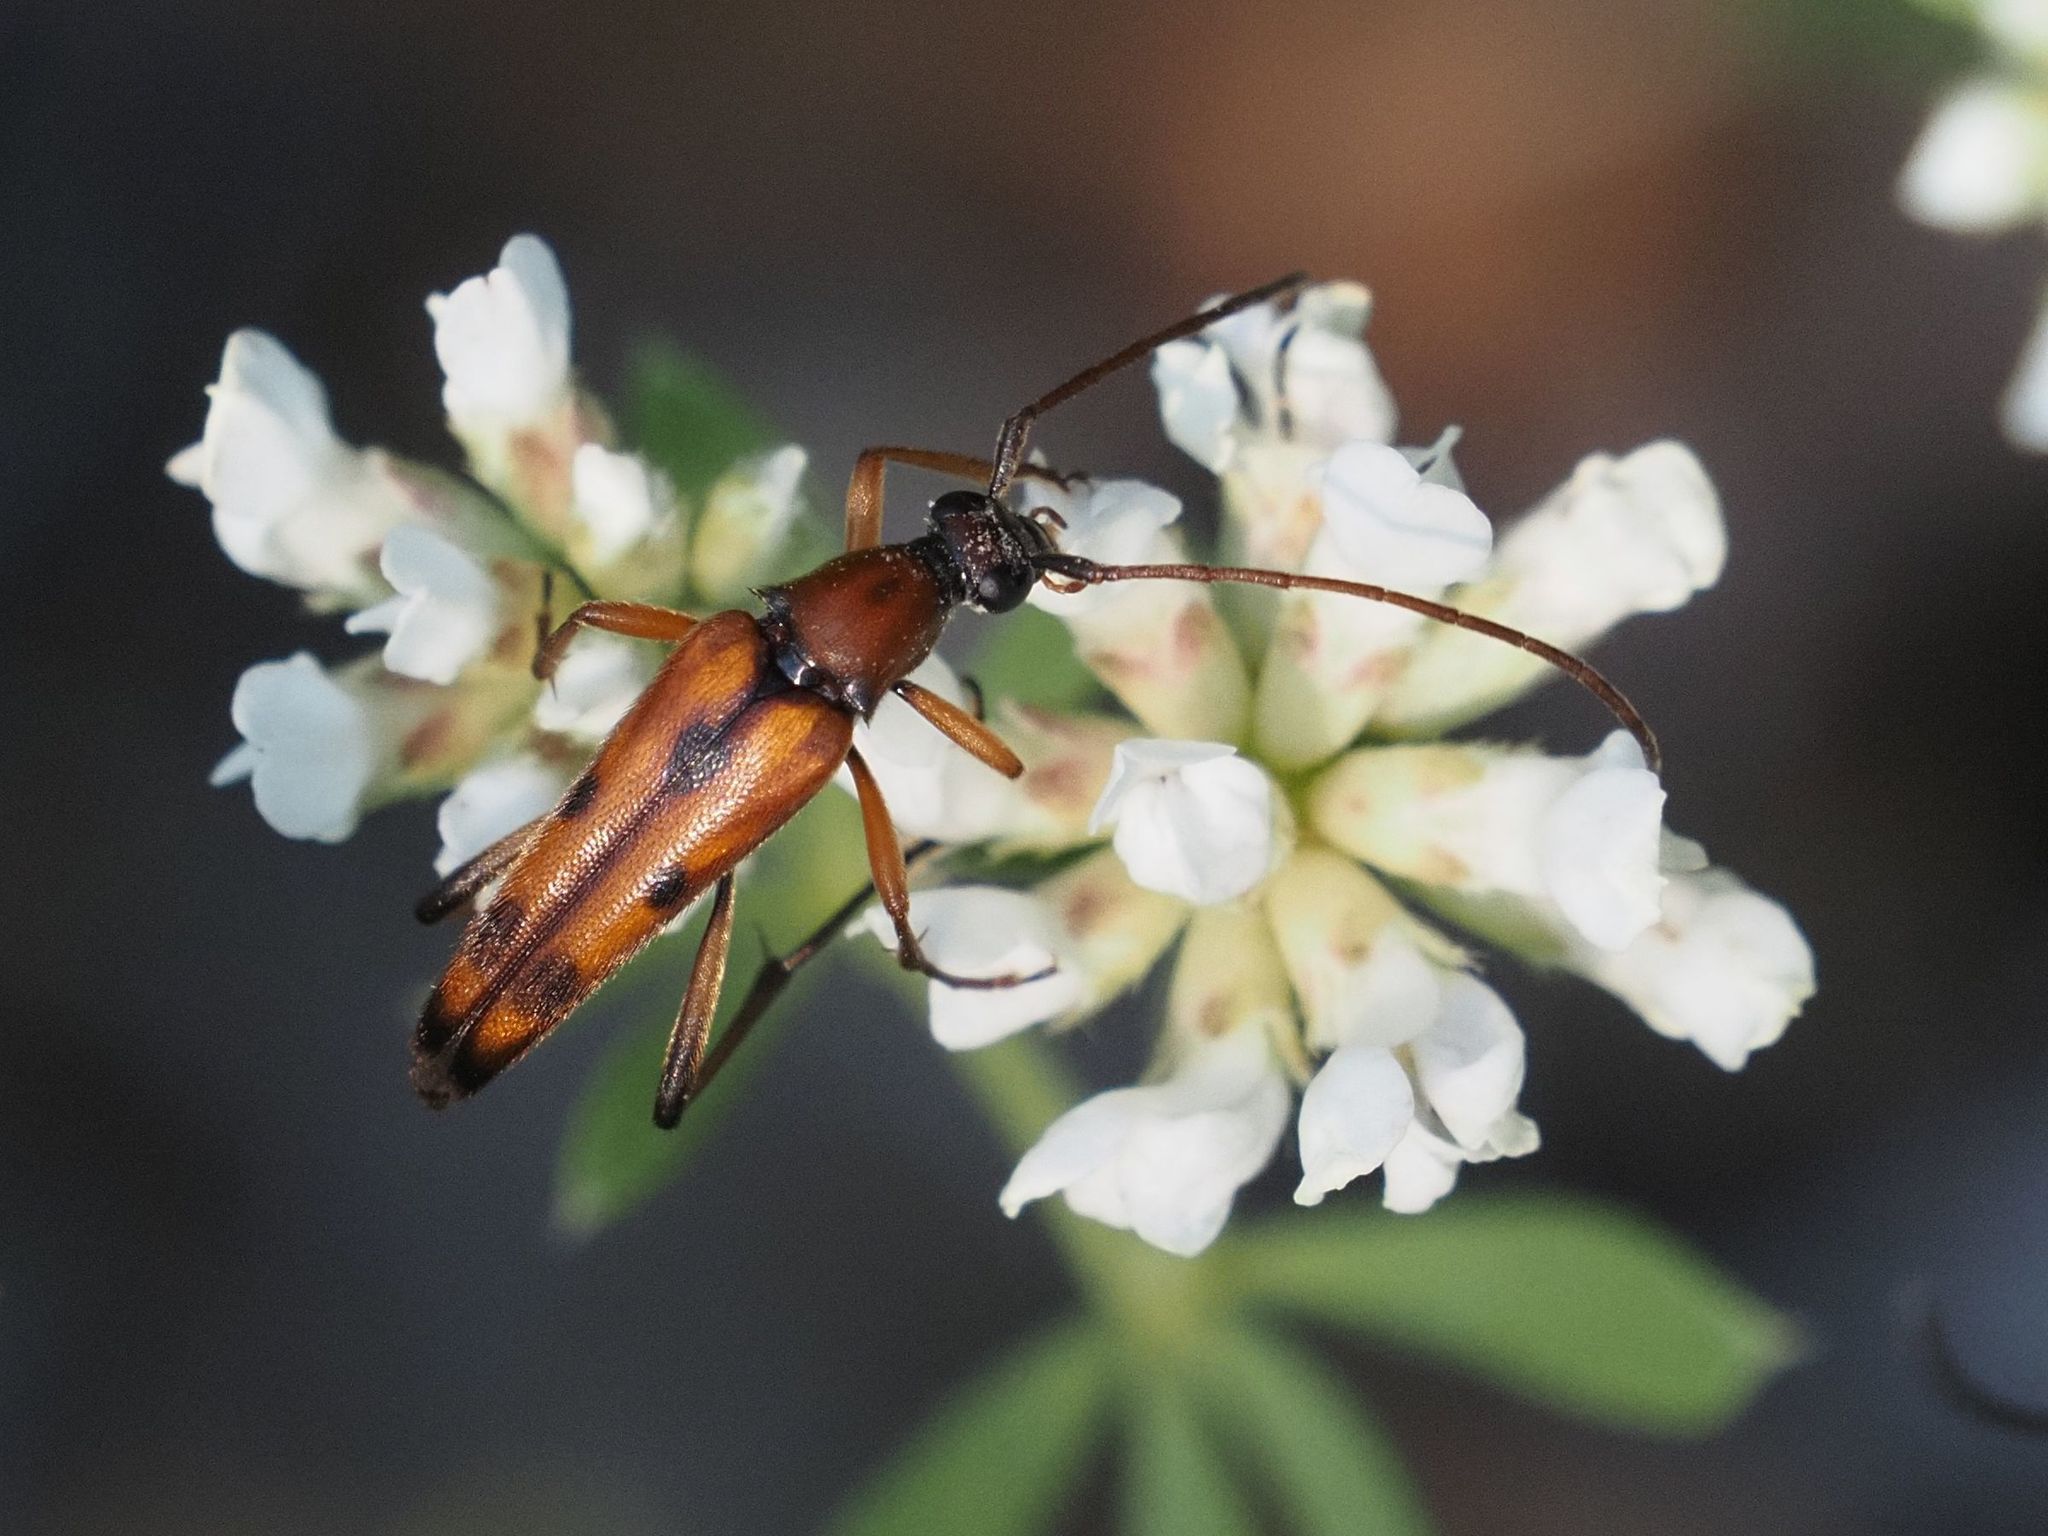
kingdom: Animalia
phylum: Arthropoda
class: Insecta
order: Coleoptera
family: Cerambycidae
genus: Stenurella
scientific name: Stenurella septempunctata
